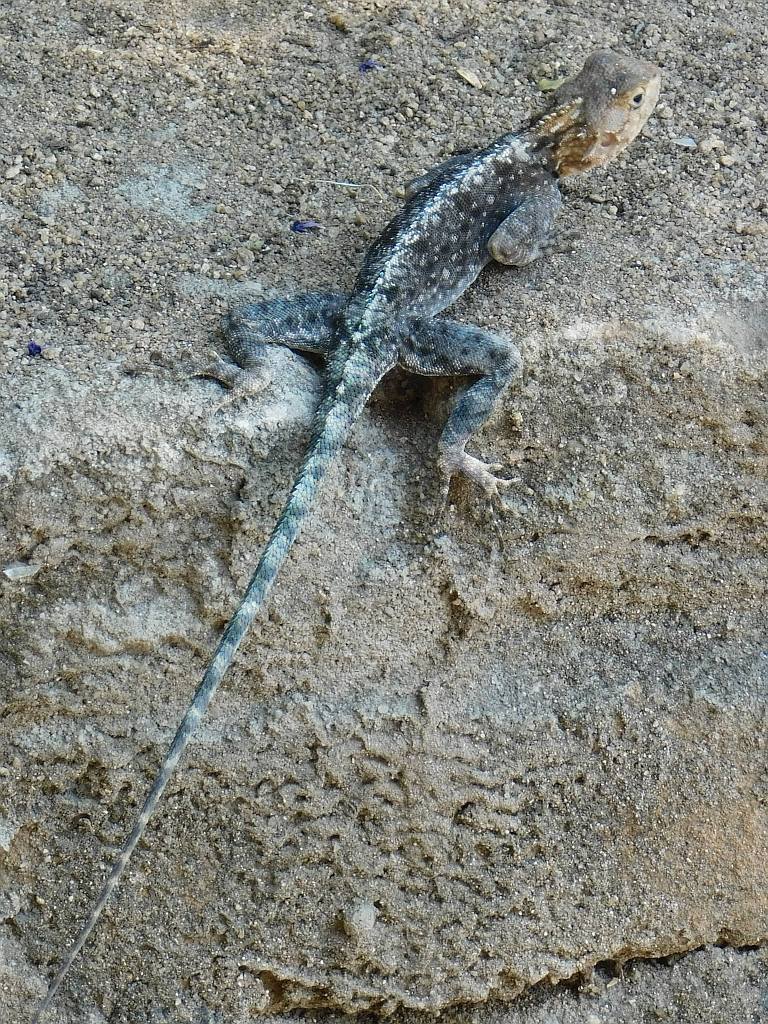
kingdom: Animalia
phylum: Chordata
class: Squamata
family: Agamidae
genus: Agama
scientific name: Agama kirkii
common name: Kirk's rock agama
